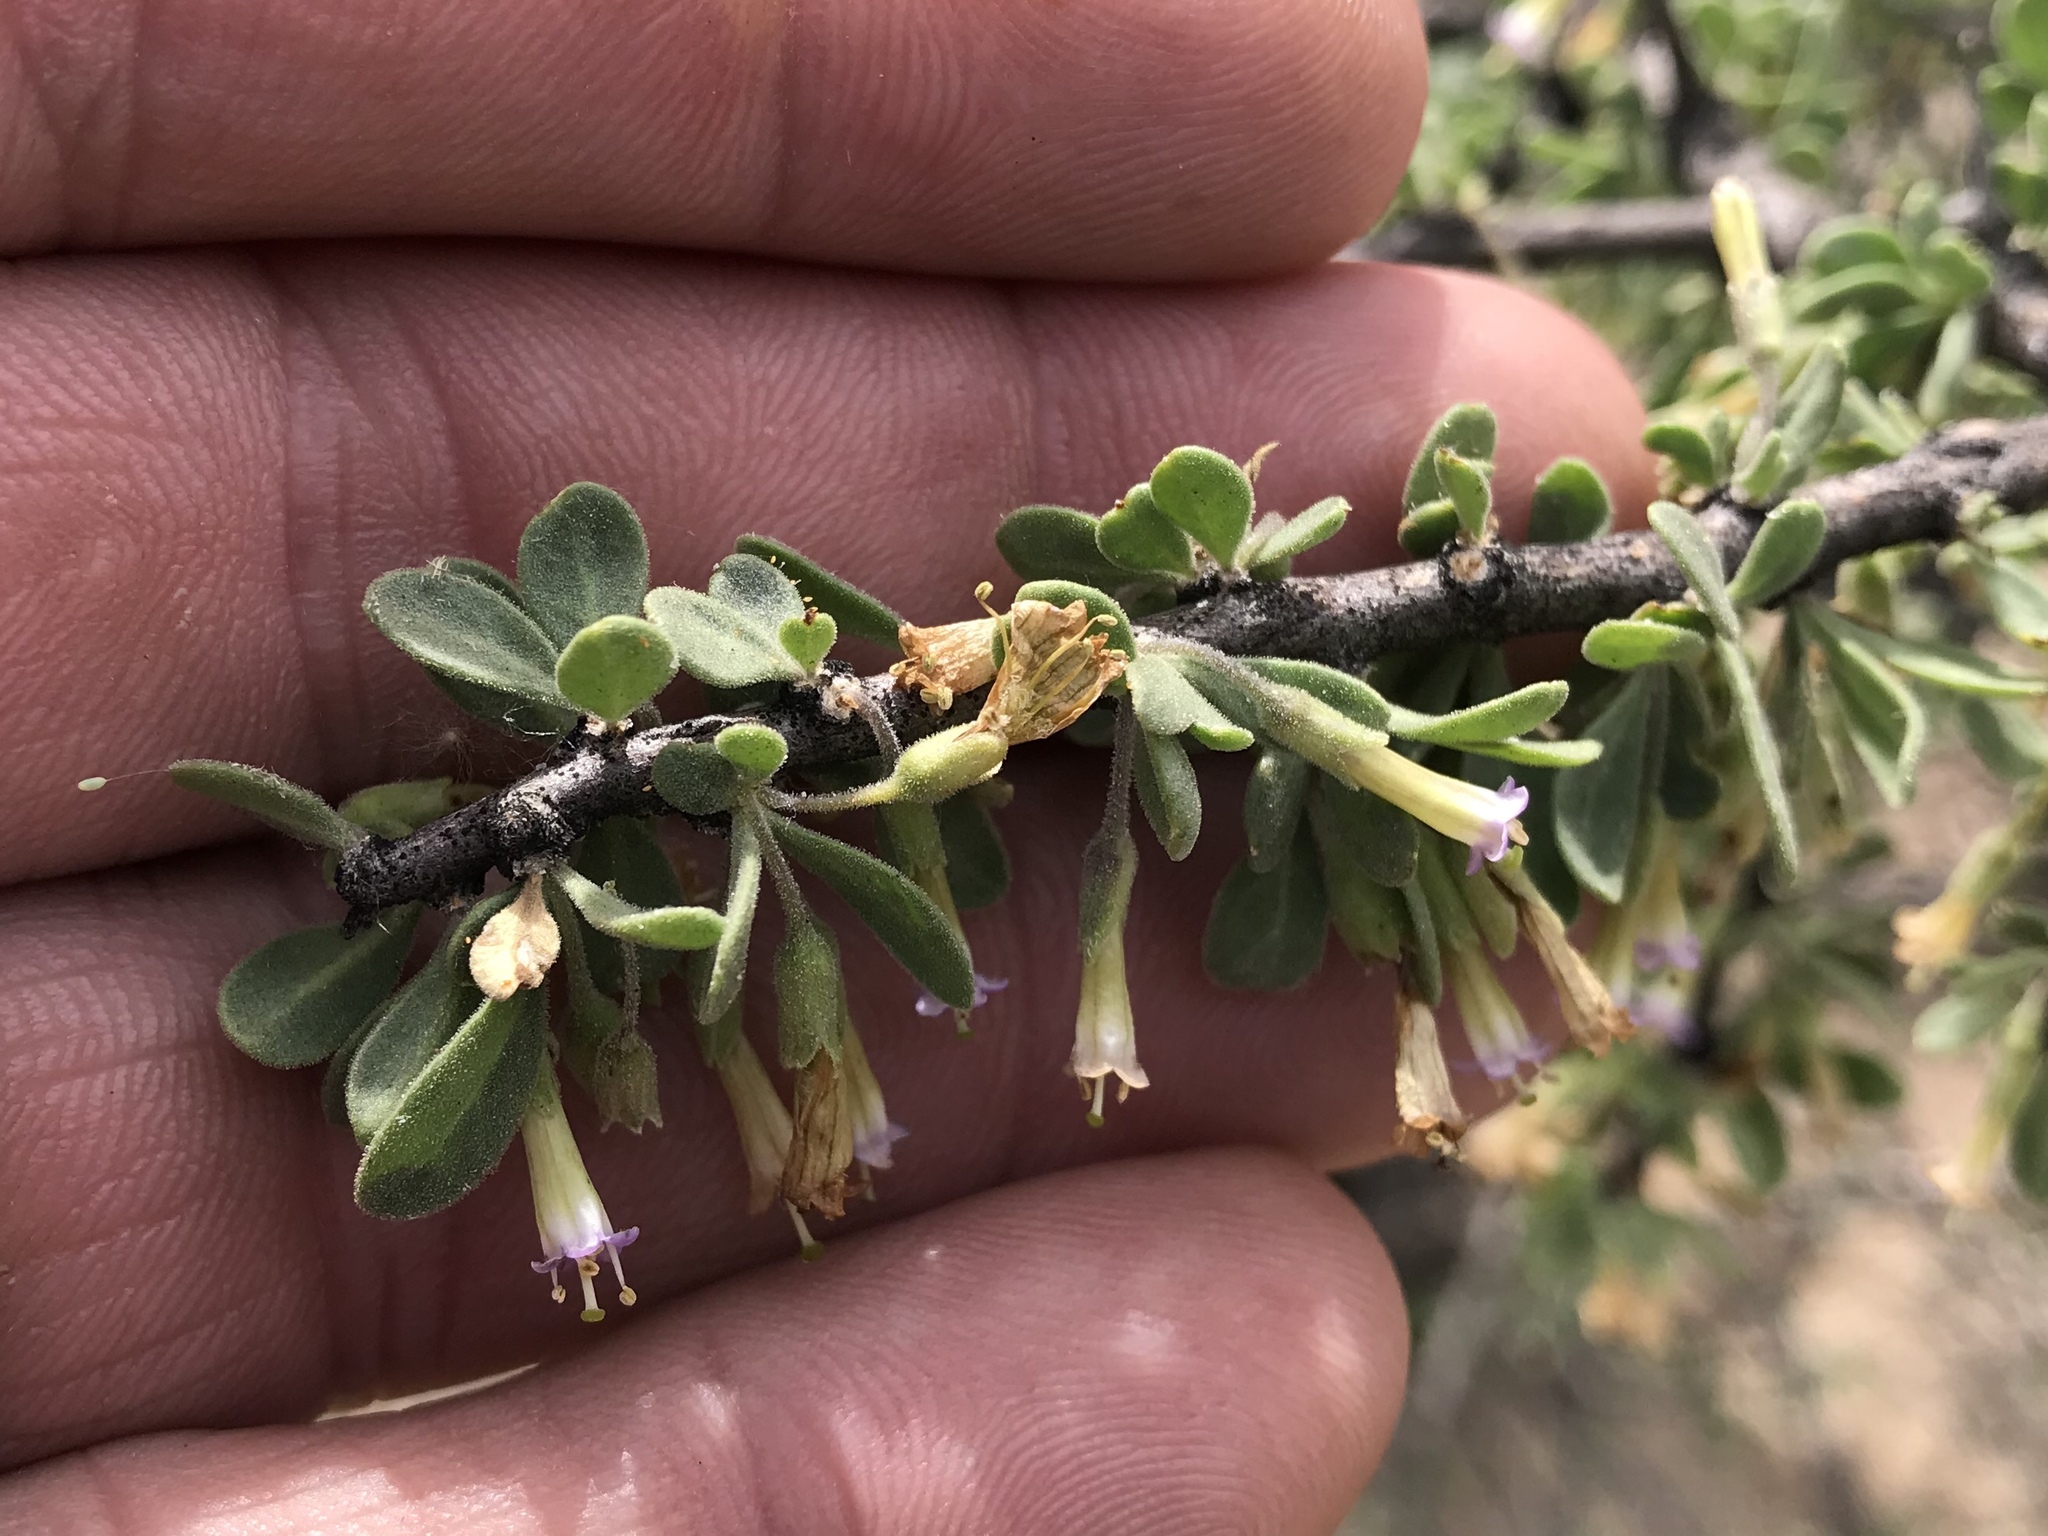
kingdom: Plantae
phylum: Tracheophyta
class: Magnoliopsida
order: Solanales
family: Solanaceae
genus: Lycium
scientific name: Lycium exsertum
